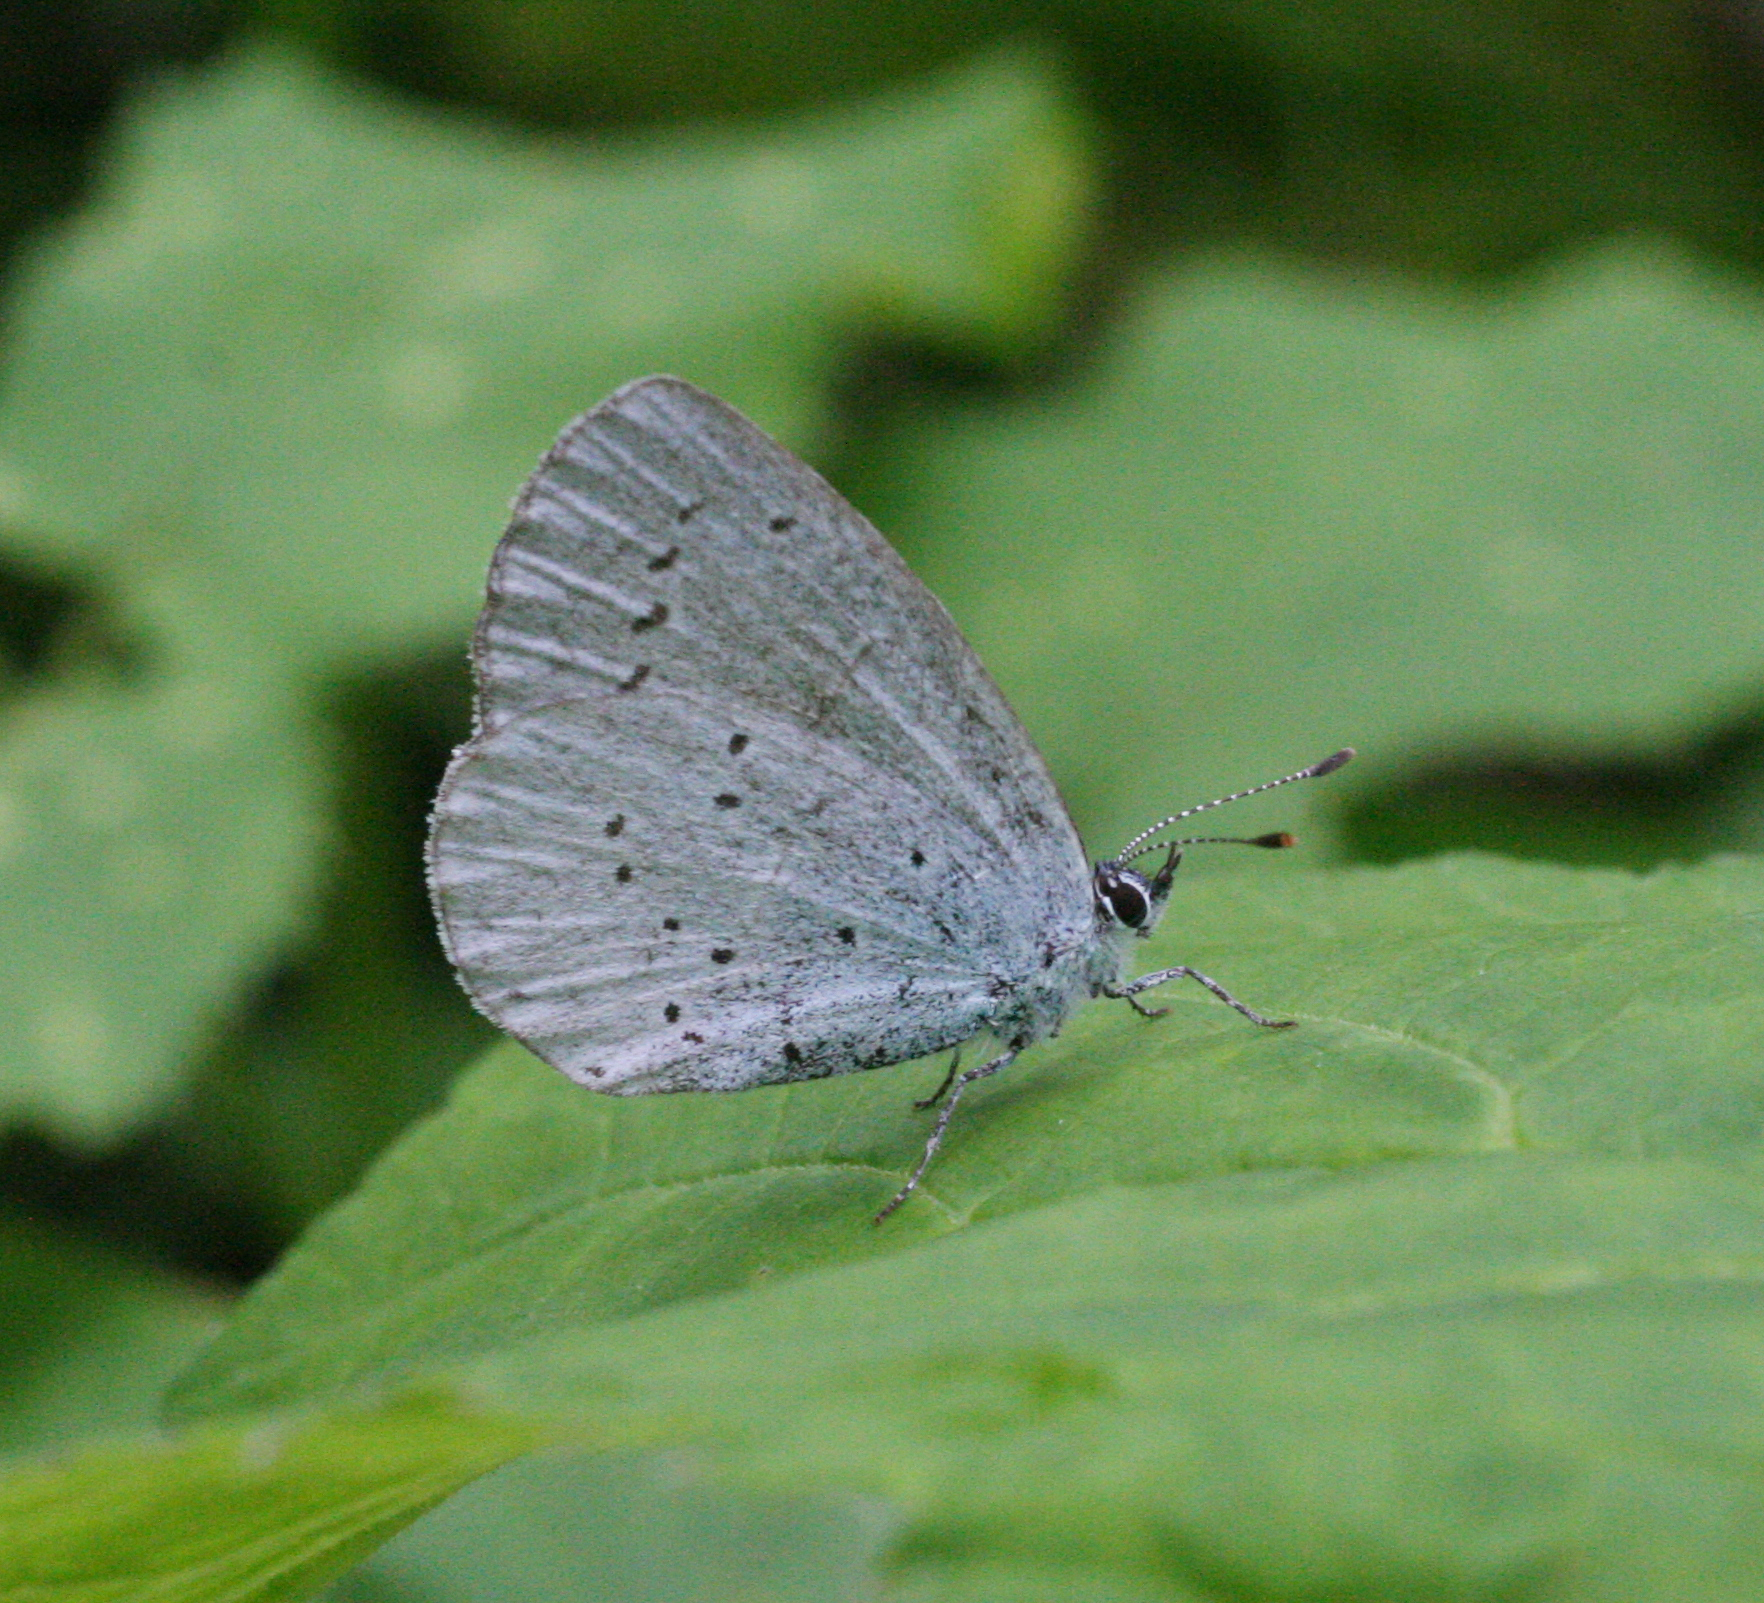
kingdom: Animalia
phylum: Arthropoda
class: Insecta
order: Lepidoptera
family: Lycaenidae
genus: Celastrina
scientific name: Celastrina argiolus
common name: Holly blue
